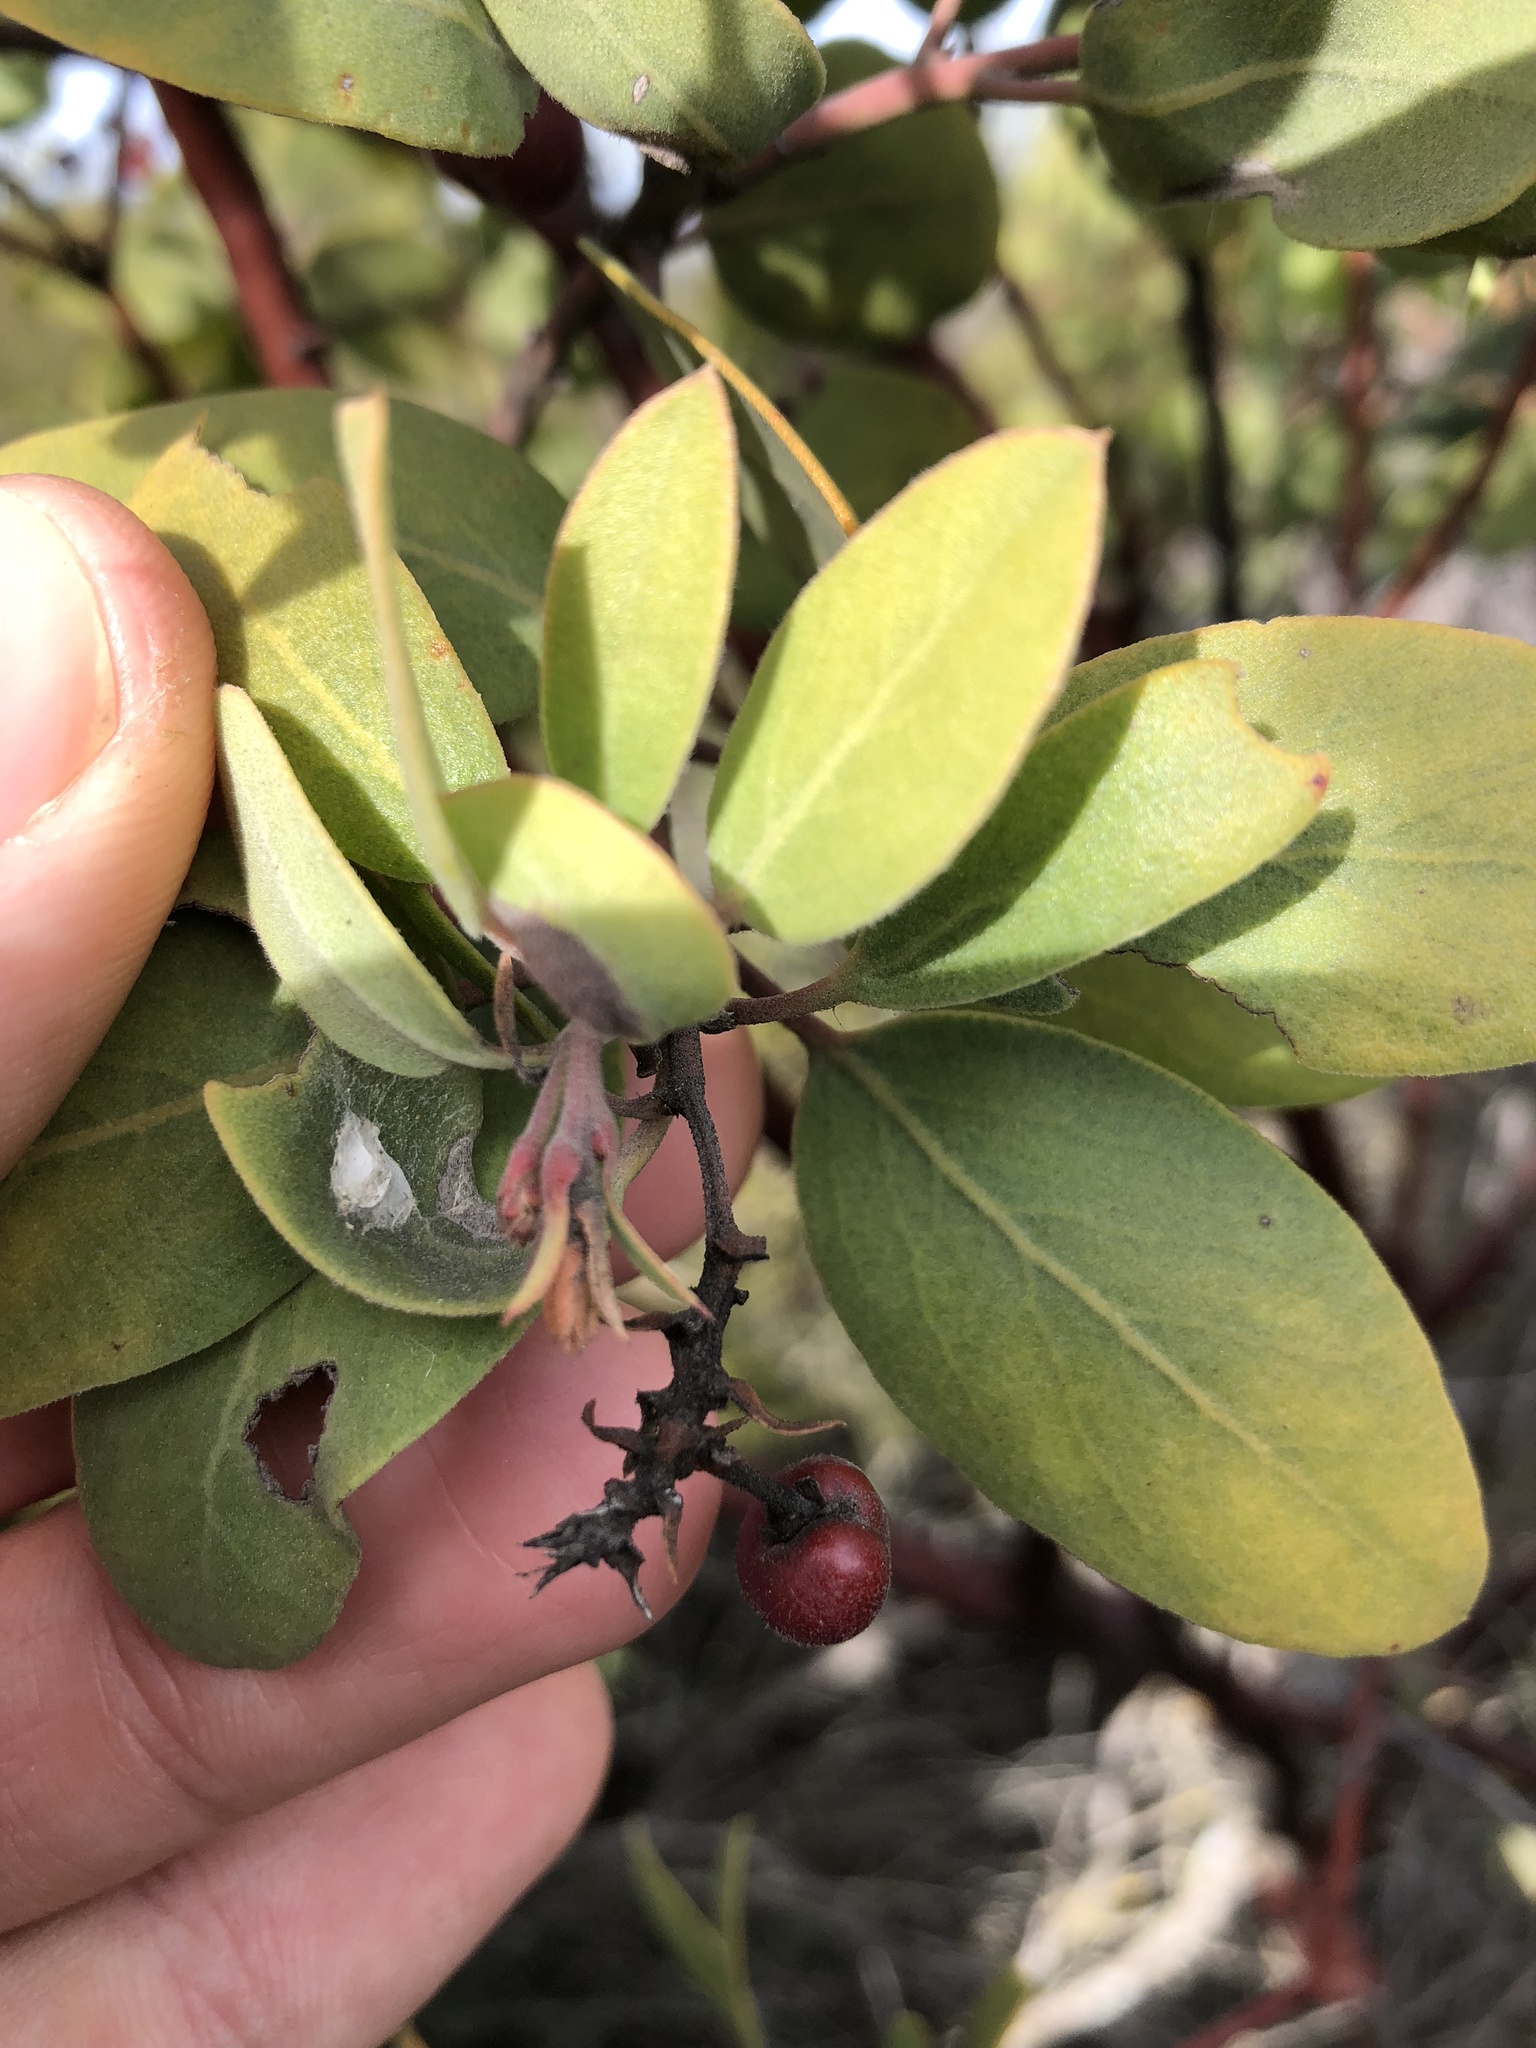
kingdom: Plantae
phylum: Tracheophyta
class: Magnoliopsida
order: Ericales
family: Ericaceae
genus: Arctostaphylos
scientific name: Arctostaphylos glandulosa
